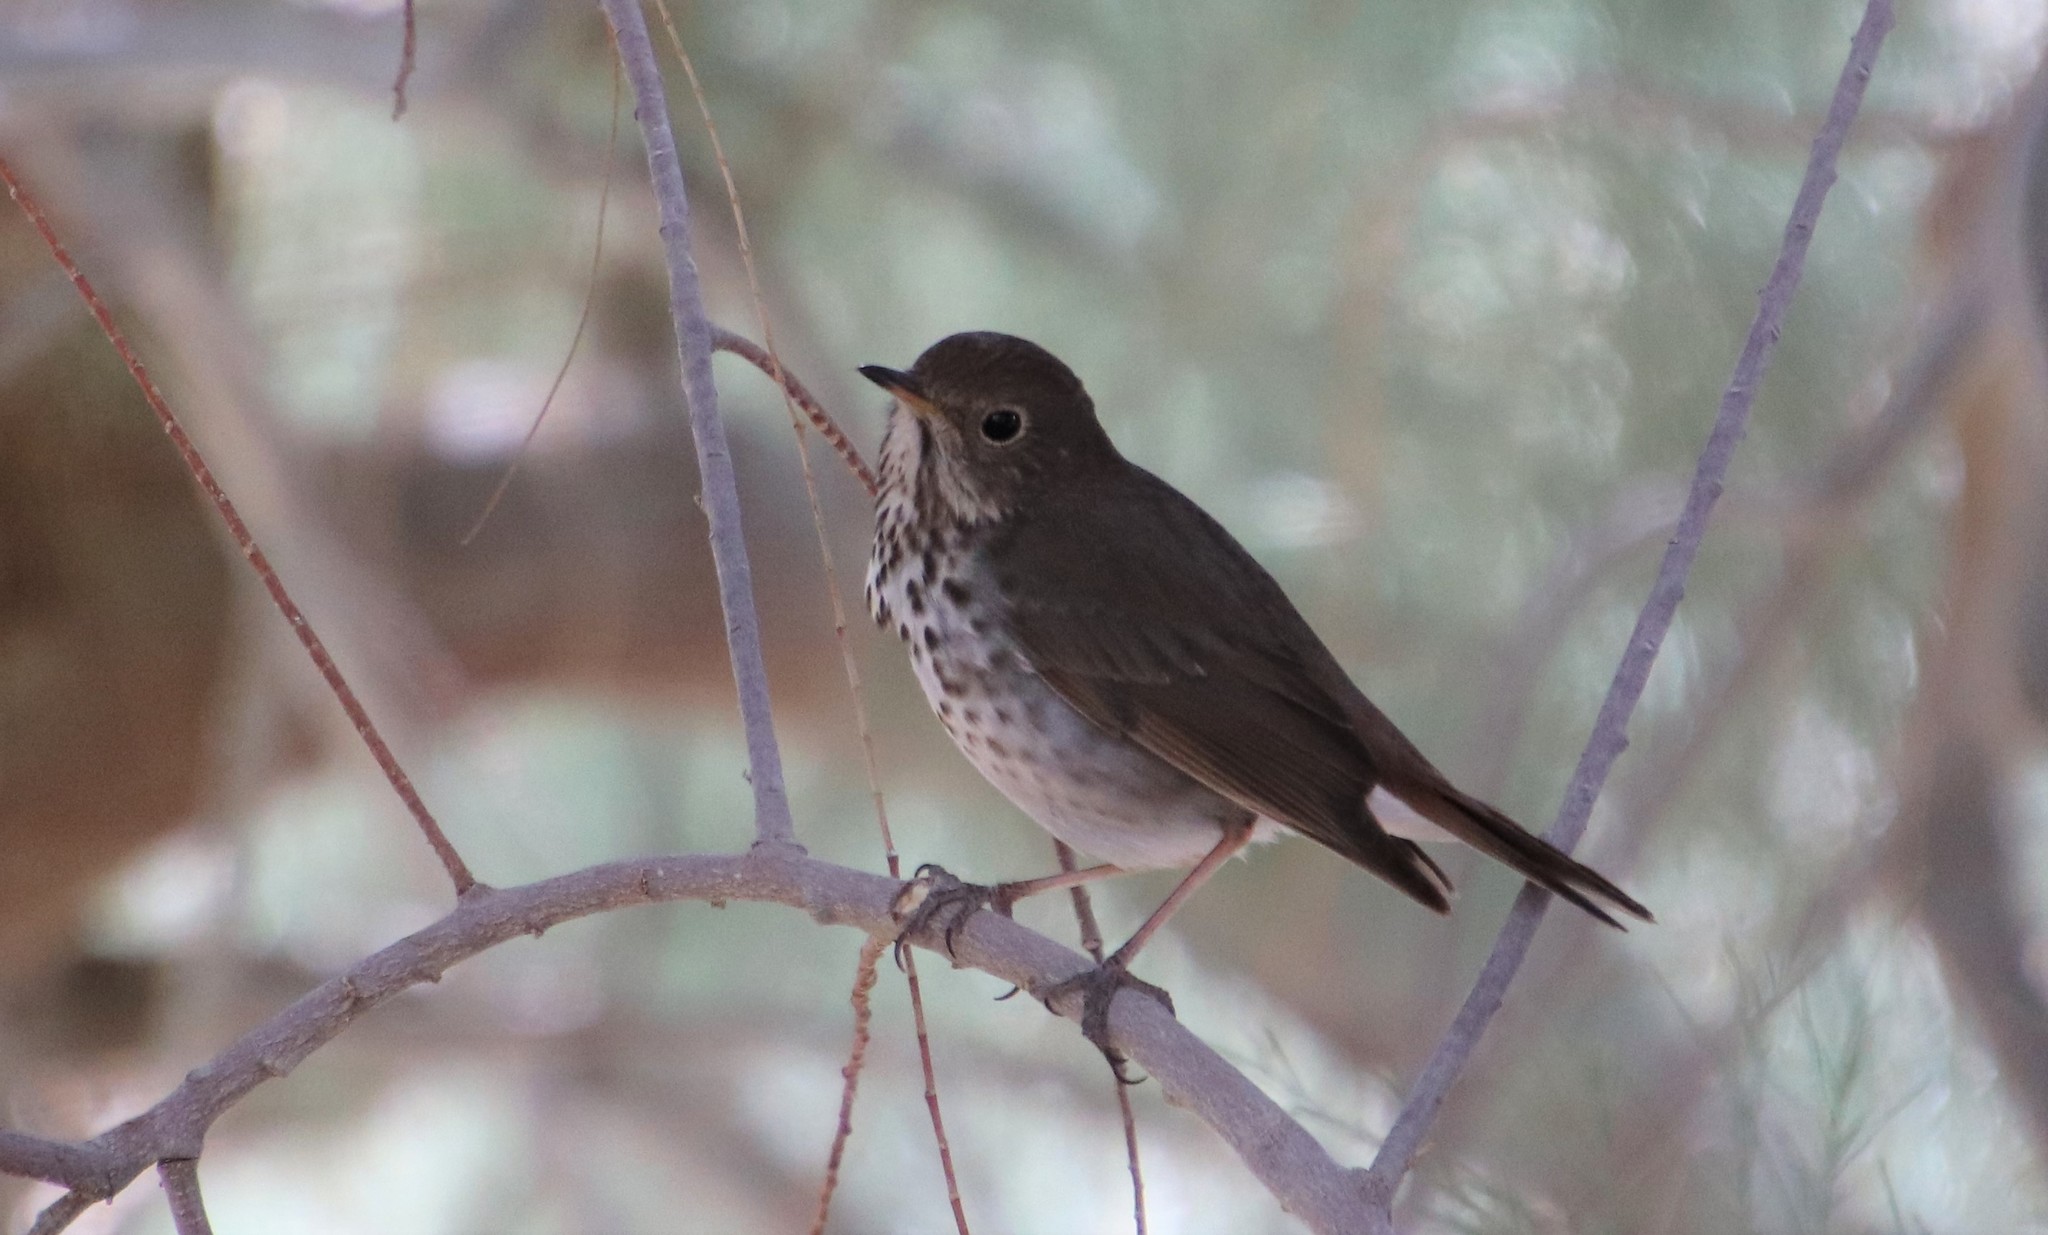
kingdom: Animalia
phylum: Chordata
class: Aves
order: Passeriformes
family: Turdidae
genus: Catharus
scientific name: Catharus guttatus
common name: Hermit thrush
